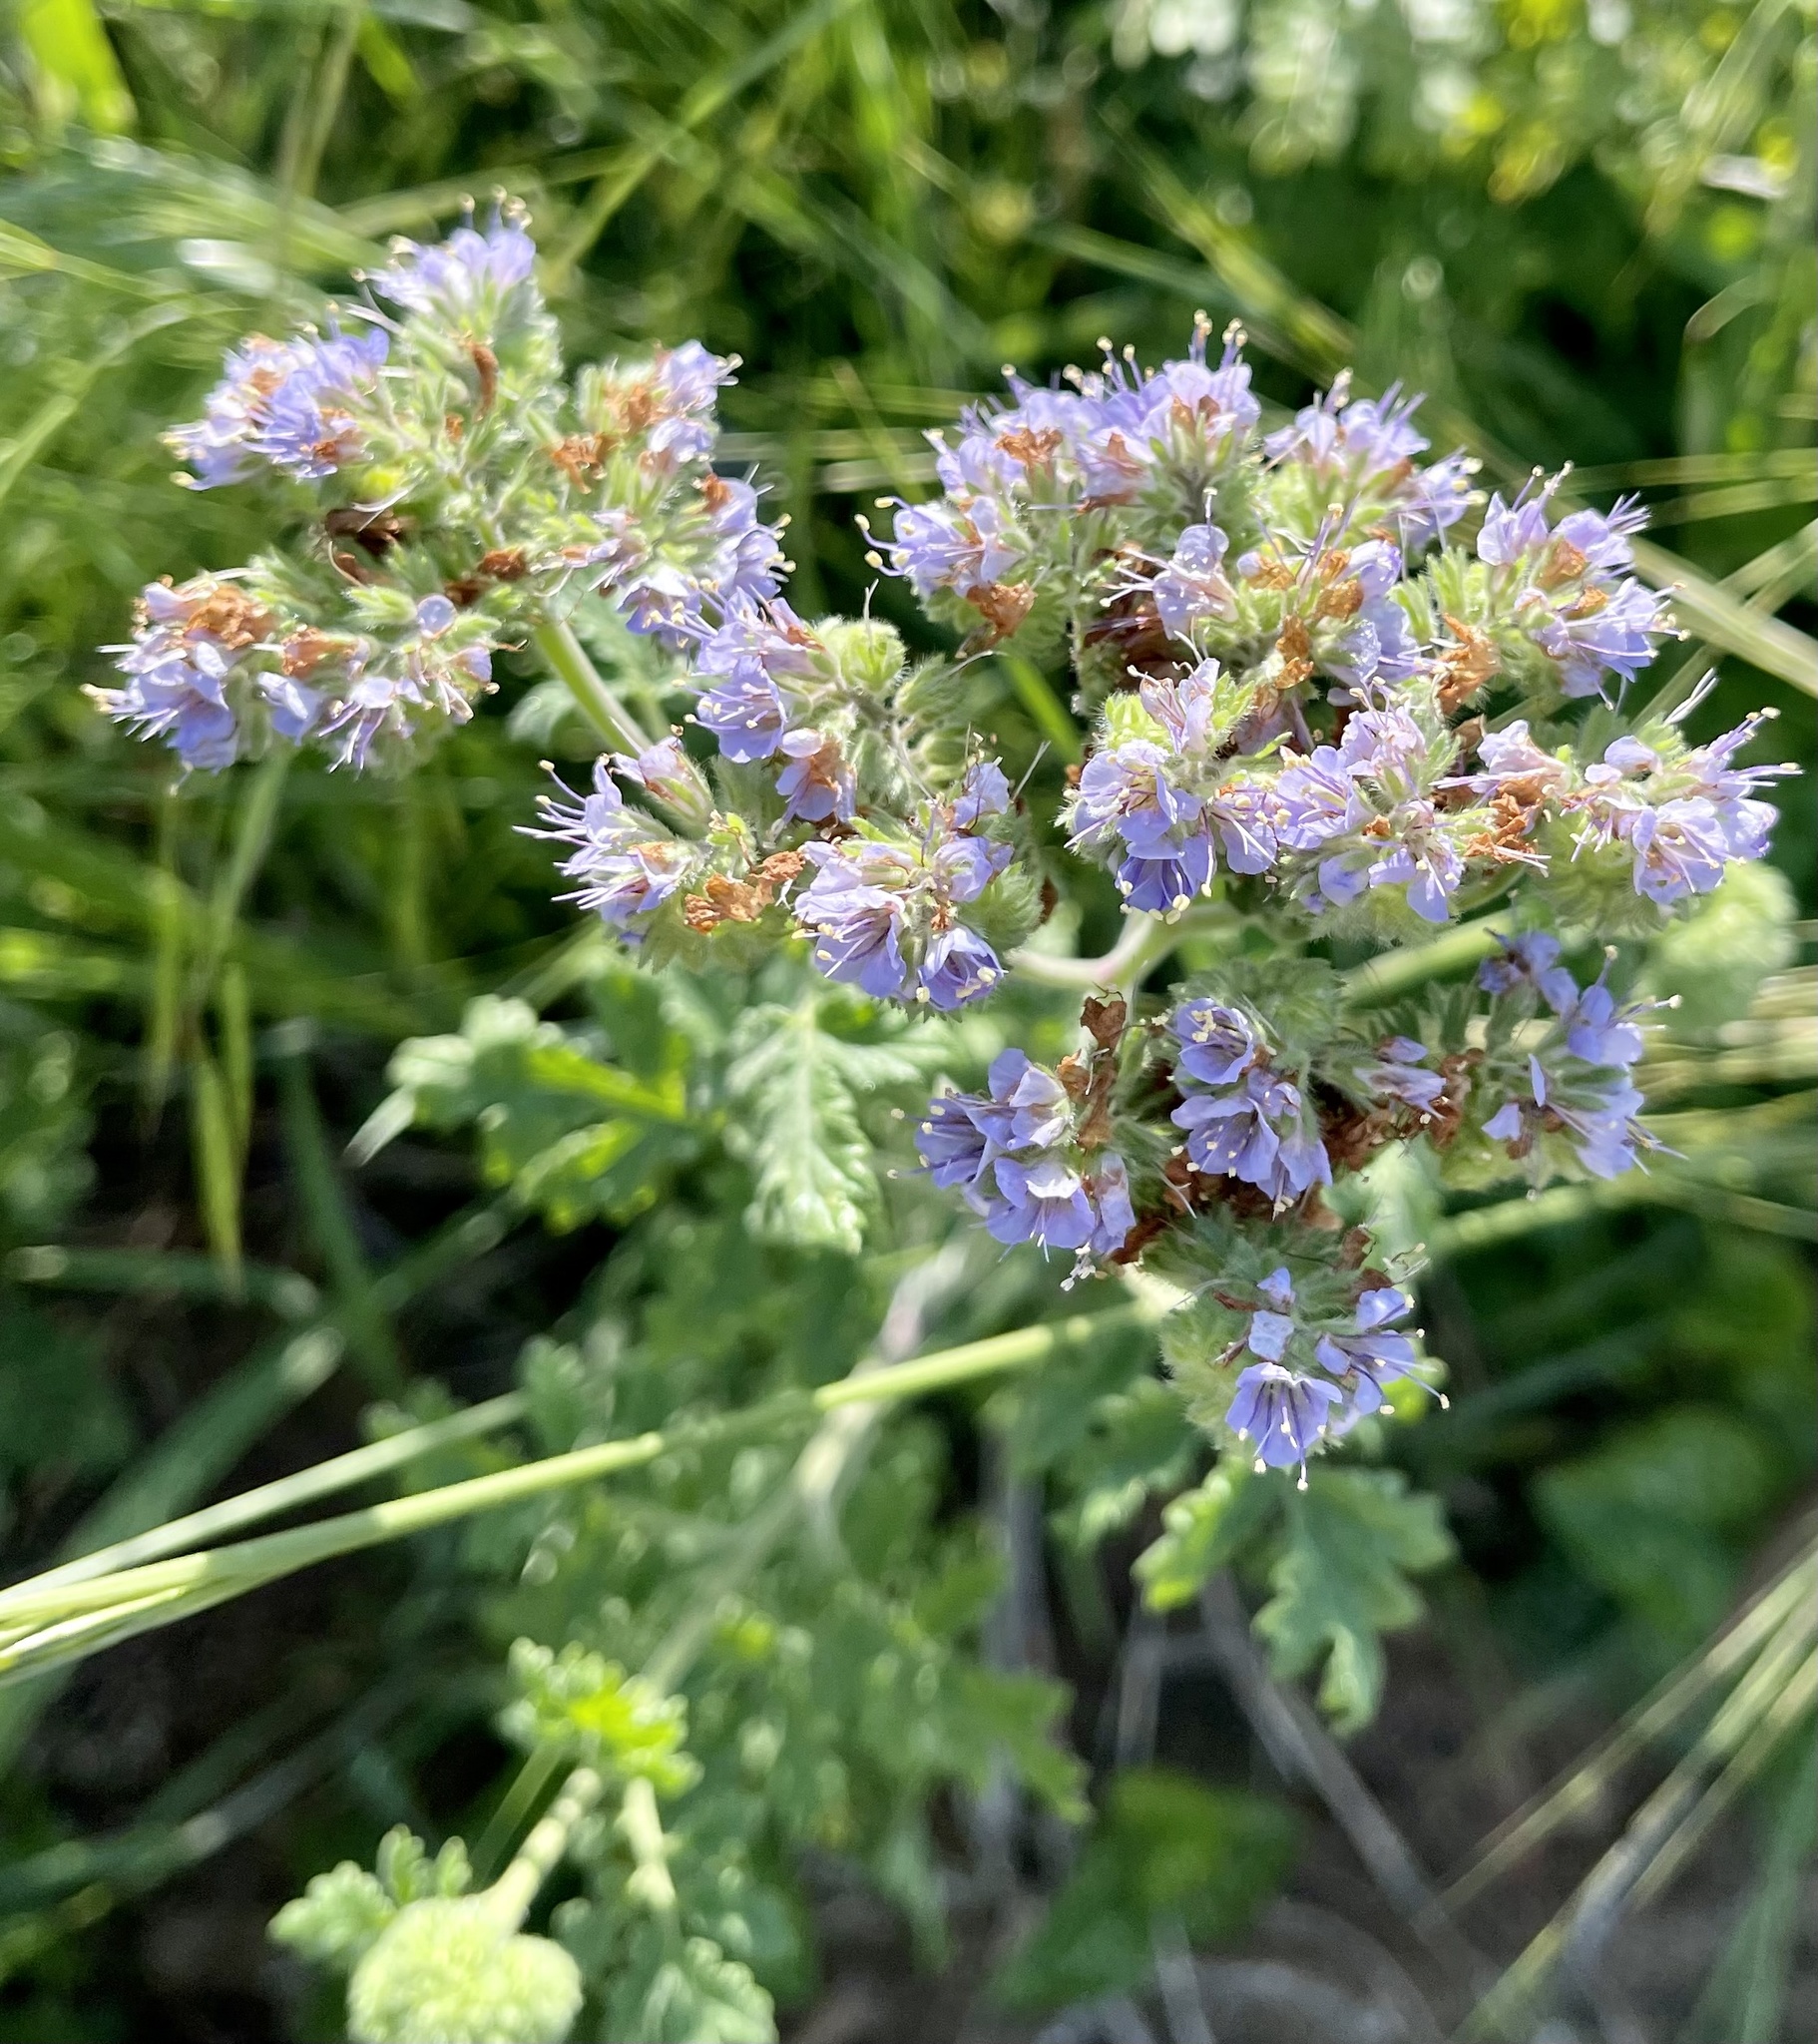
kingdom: Plantae
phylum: Tracheophyta
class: Magnoliopsida
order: Boraginales
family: Hydrophyllaceae
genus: Phacelia
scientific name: Phacelia congesta
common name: Blue curls
